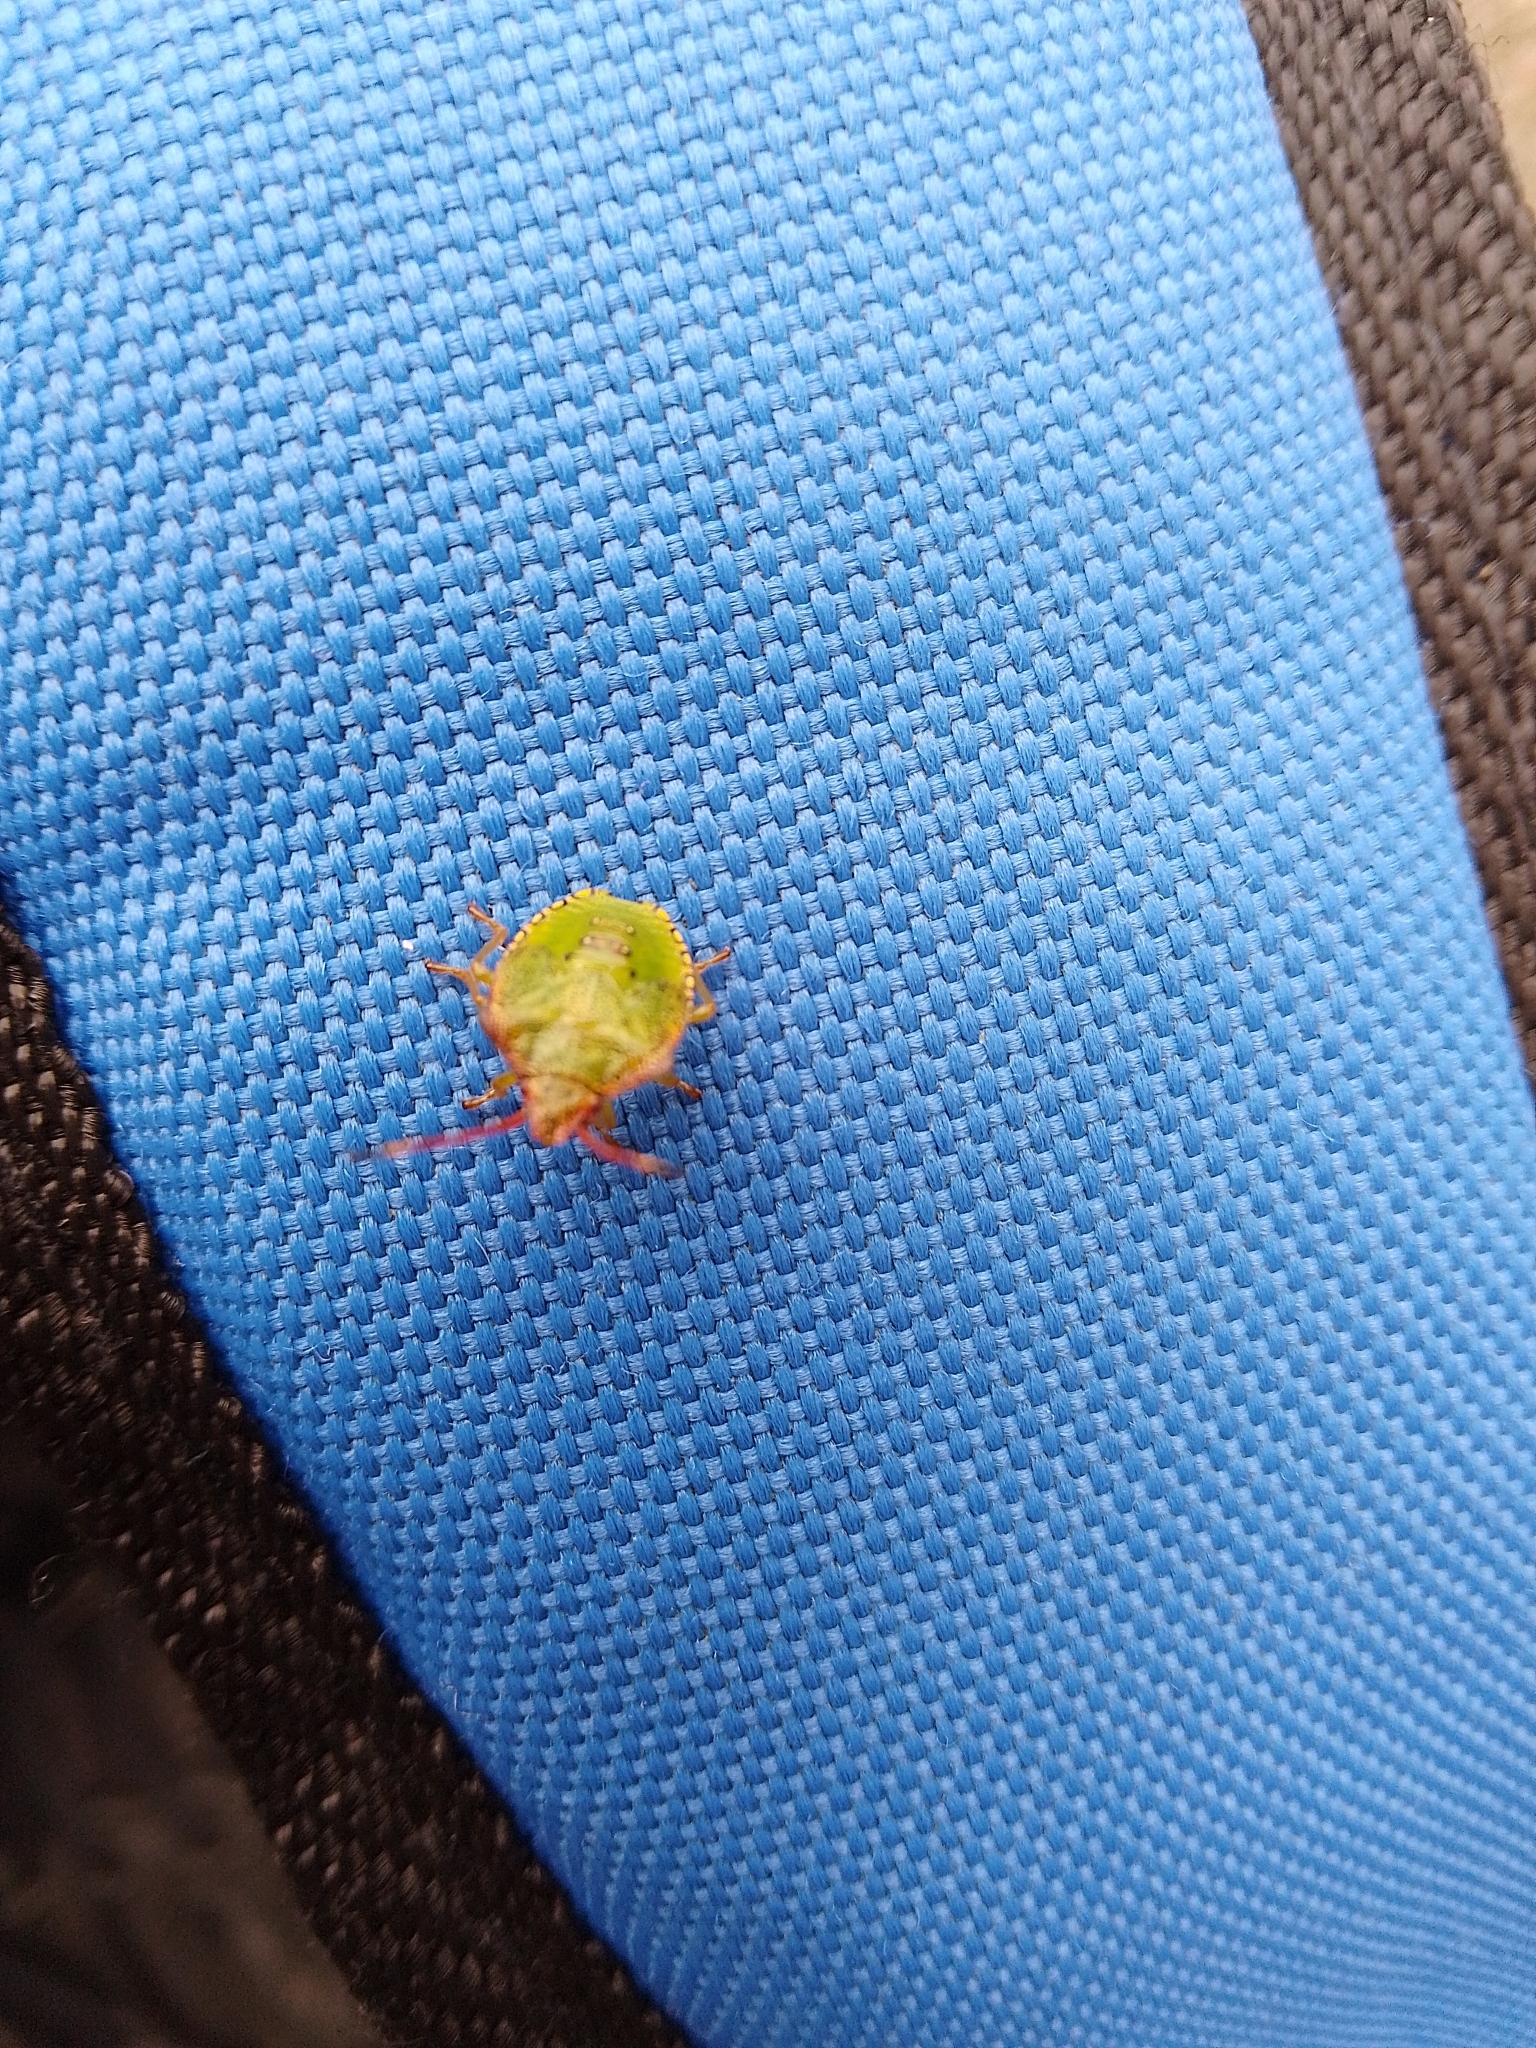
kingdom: Animalia
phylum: Arthropoda
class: Insecta
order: Hemiptera
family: Acanthosomatidae
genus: Acanthosoma
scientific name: Acanthosoma haemorrhoidale
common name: Hawthorn shieldbug
